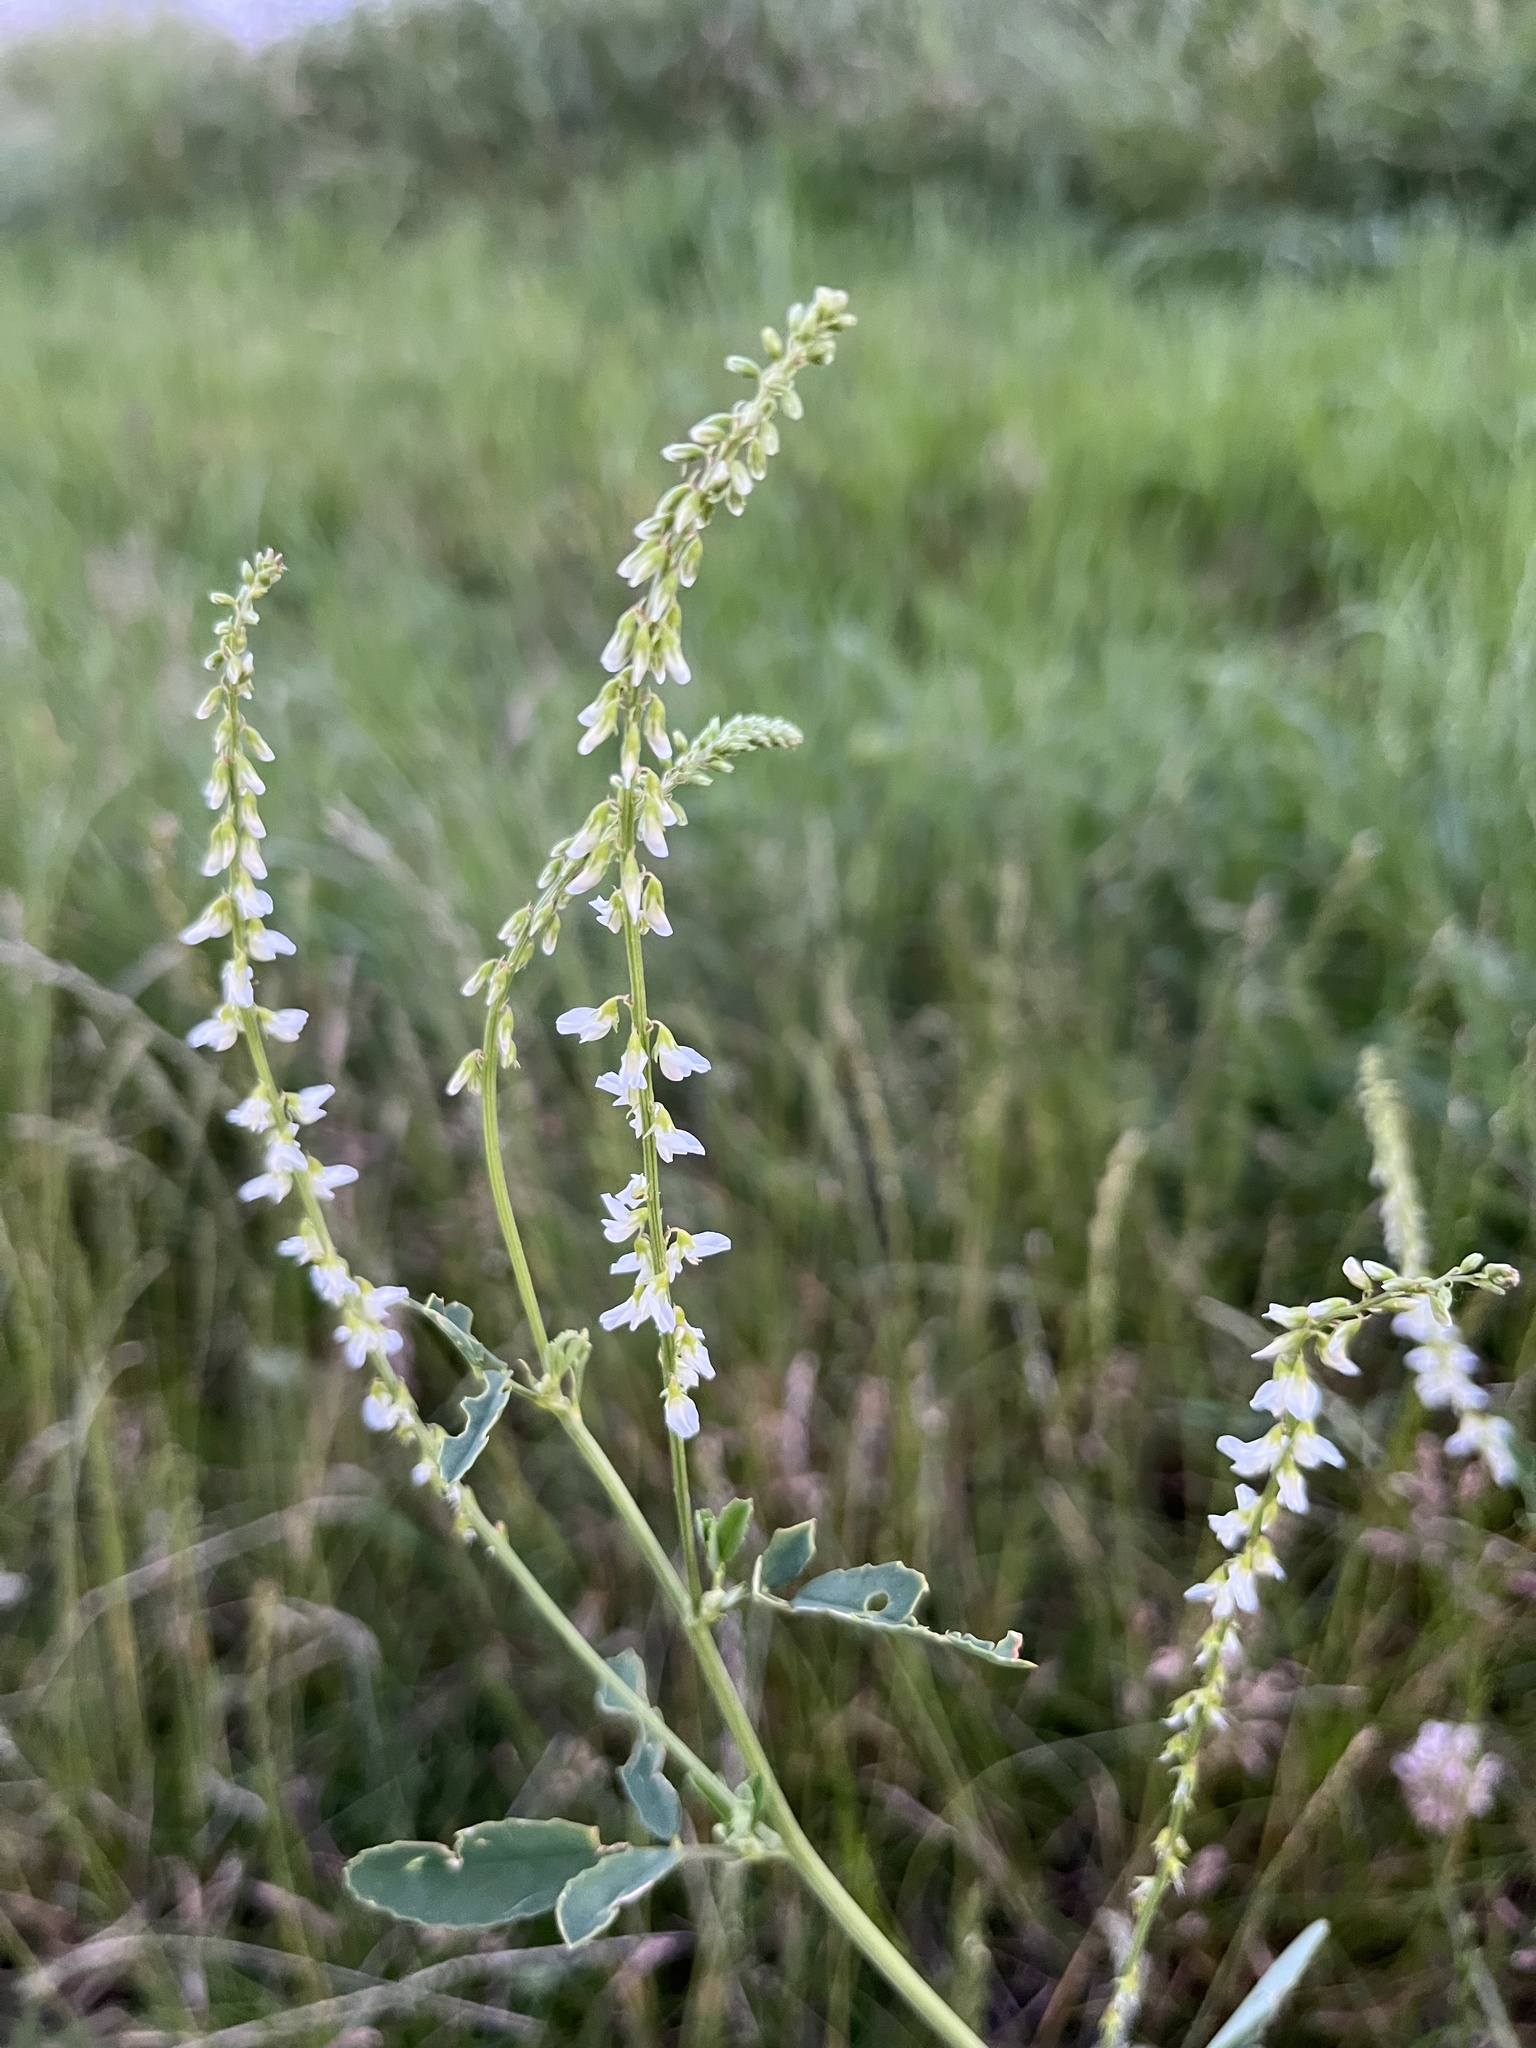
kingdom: Plantae
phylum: Tracheophyta
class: Magnoliopsida
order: Fabales
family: Fabaceae
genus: Melilotus
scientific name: Melilotus albus
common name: White melilot
